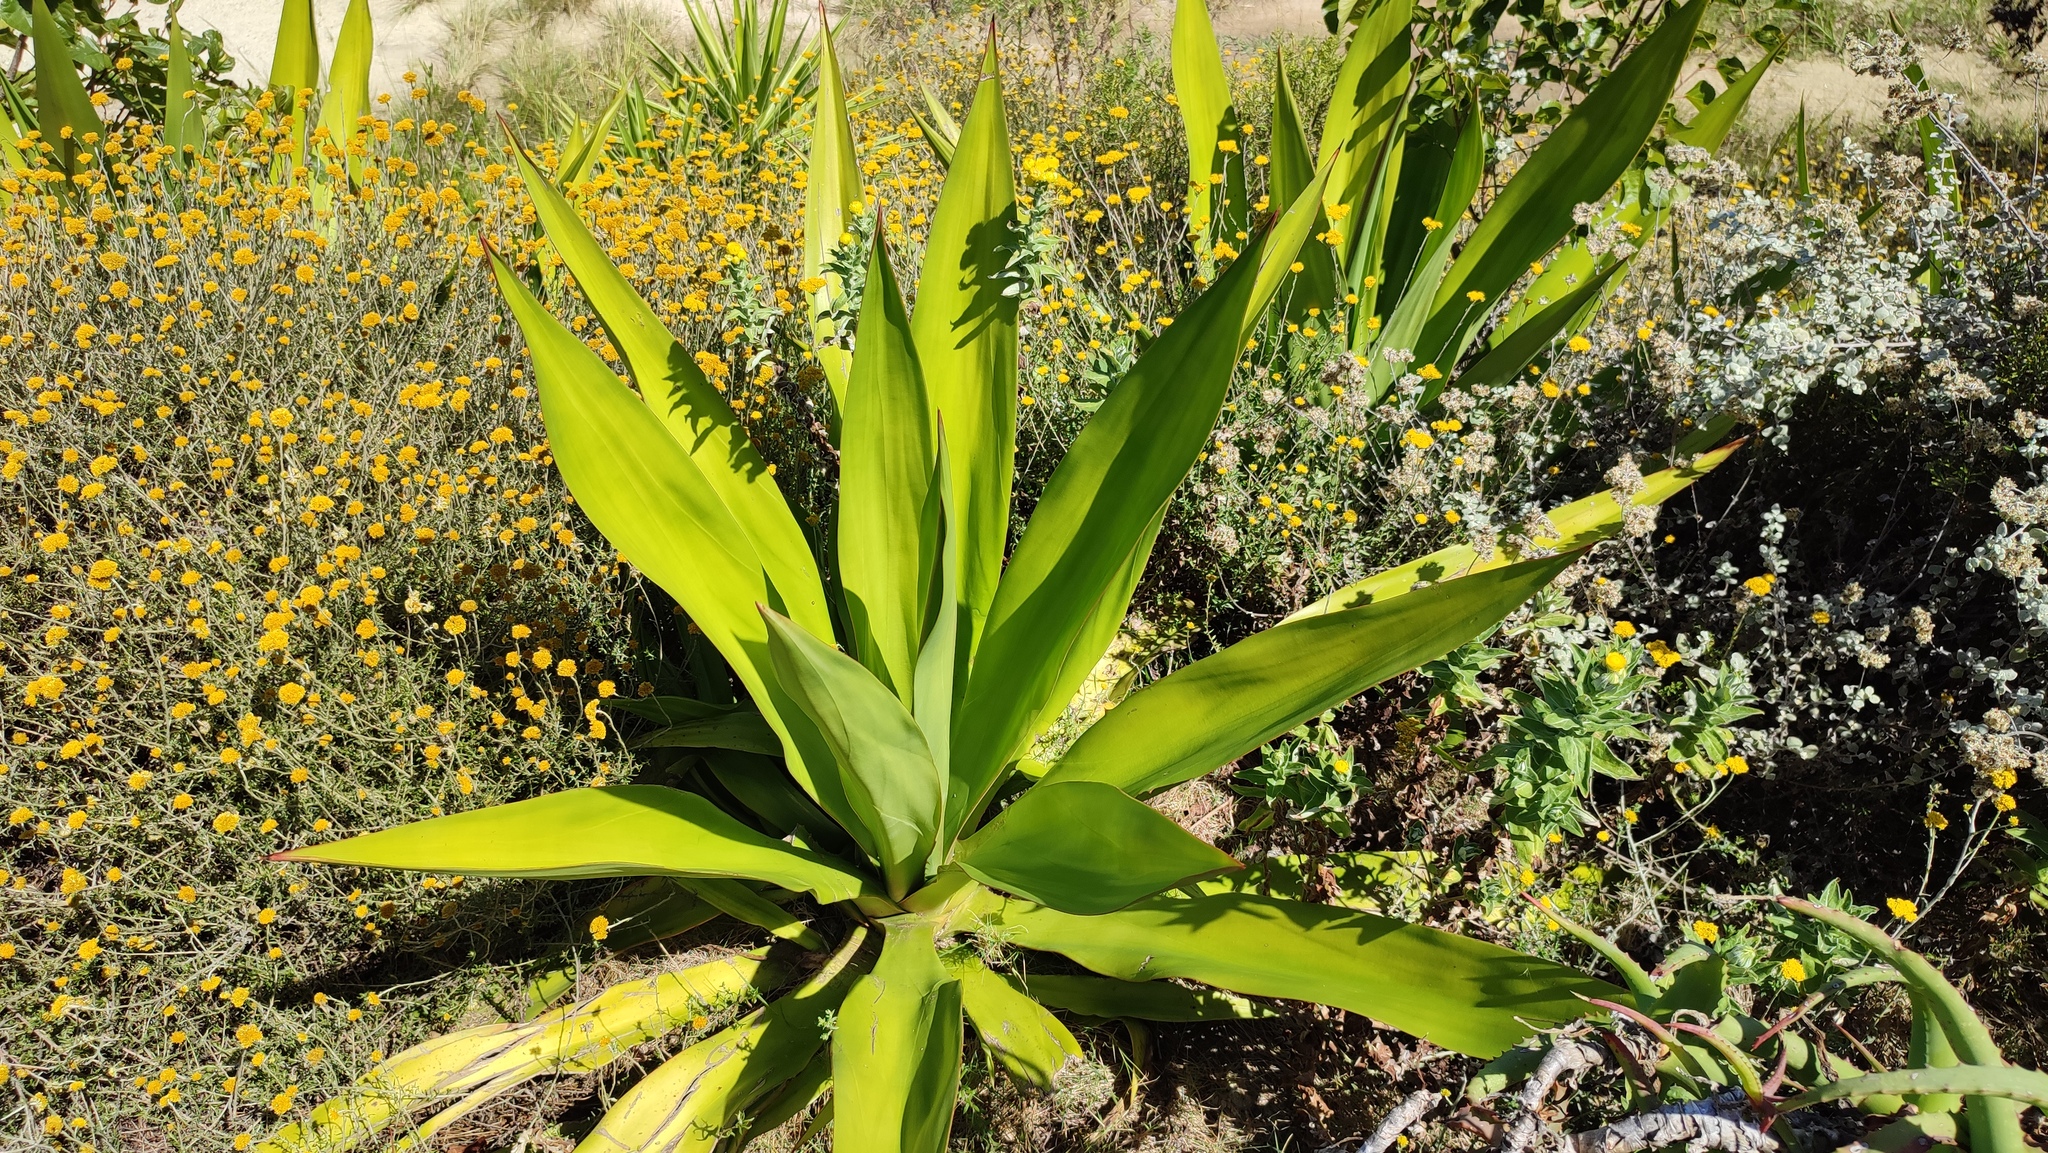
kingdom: Plantae
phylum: Tracheophyta
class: Liliopsida
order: Asparagales
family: Asparagaceae
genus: Furcraea
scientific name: Furcraea foetida
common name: Mauritius hemp
